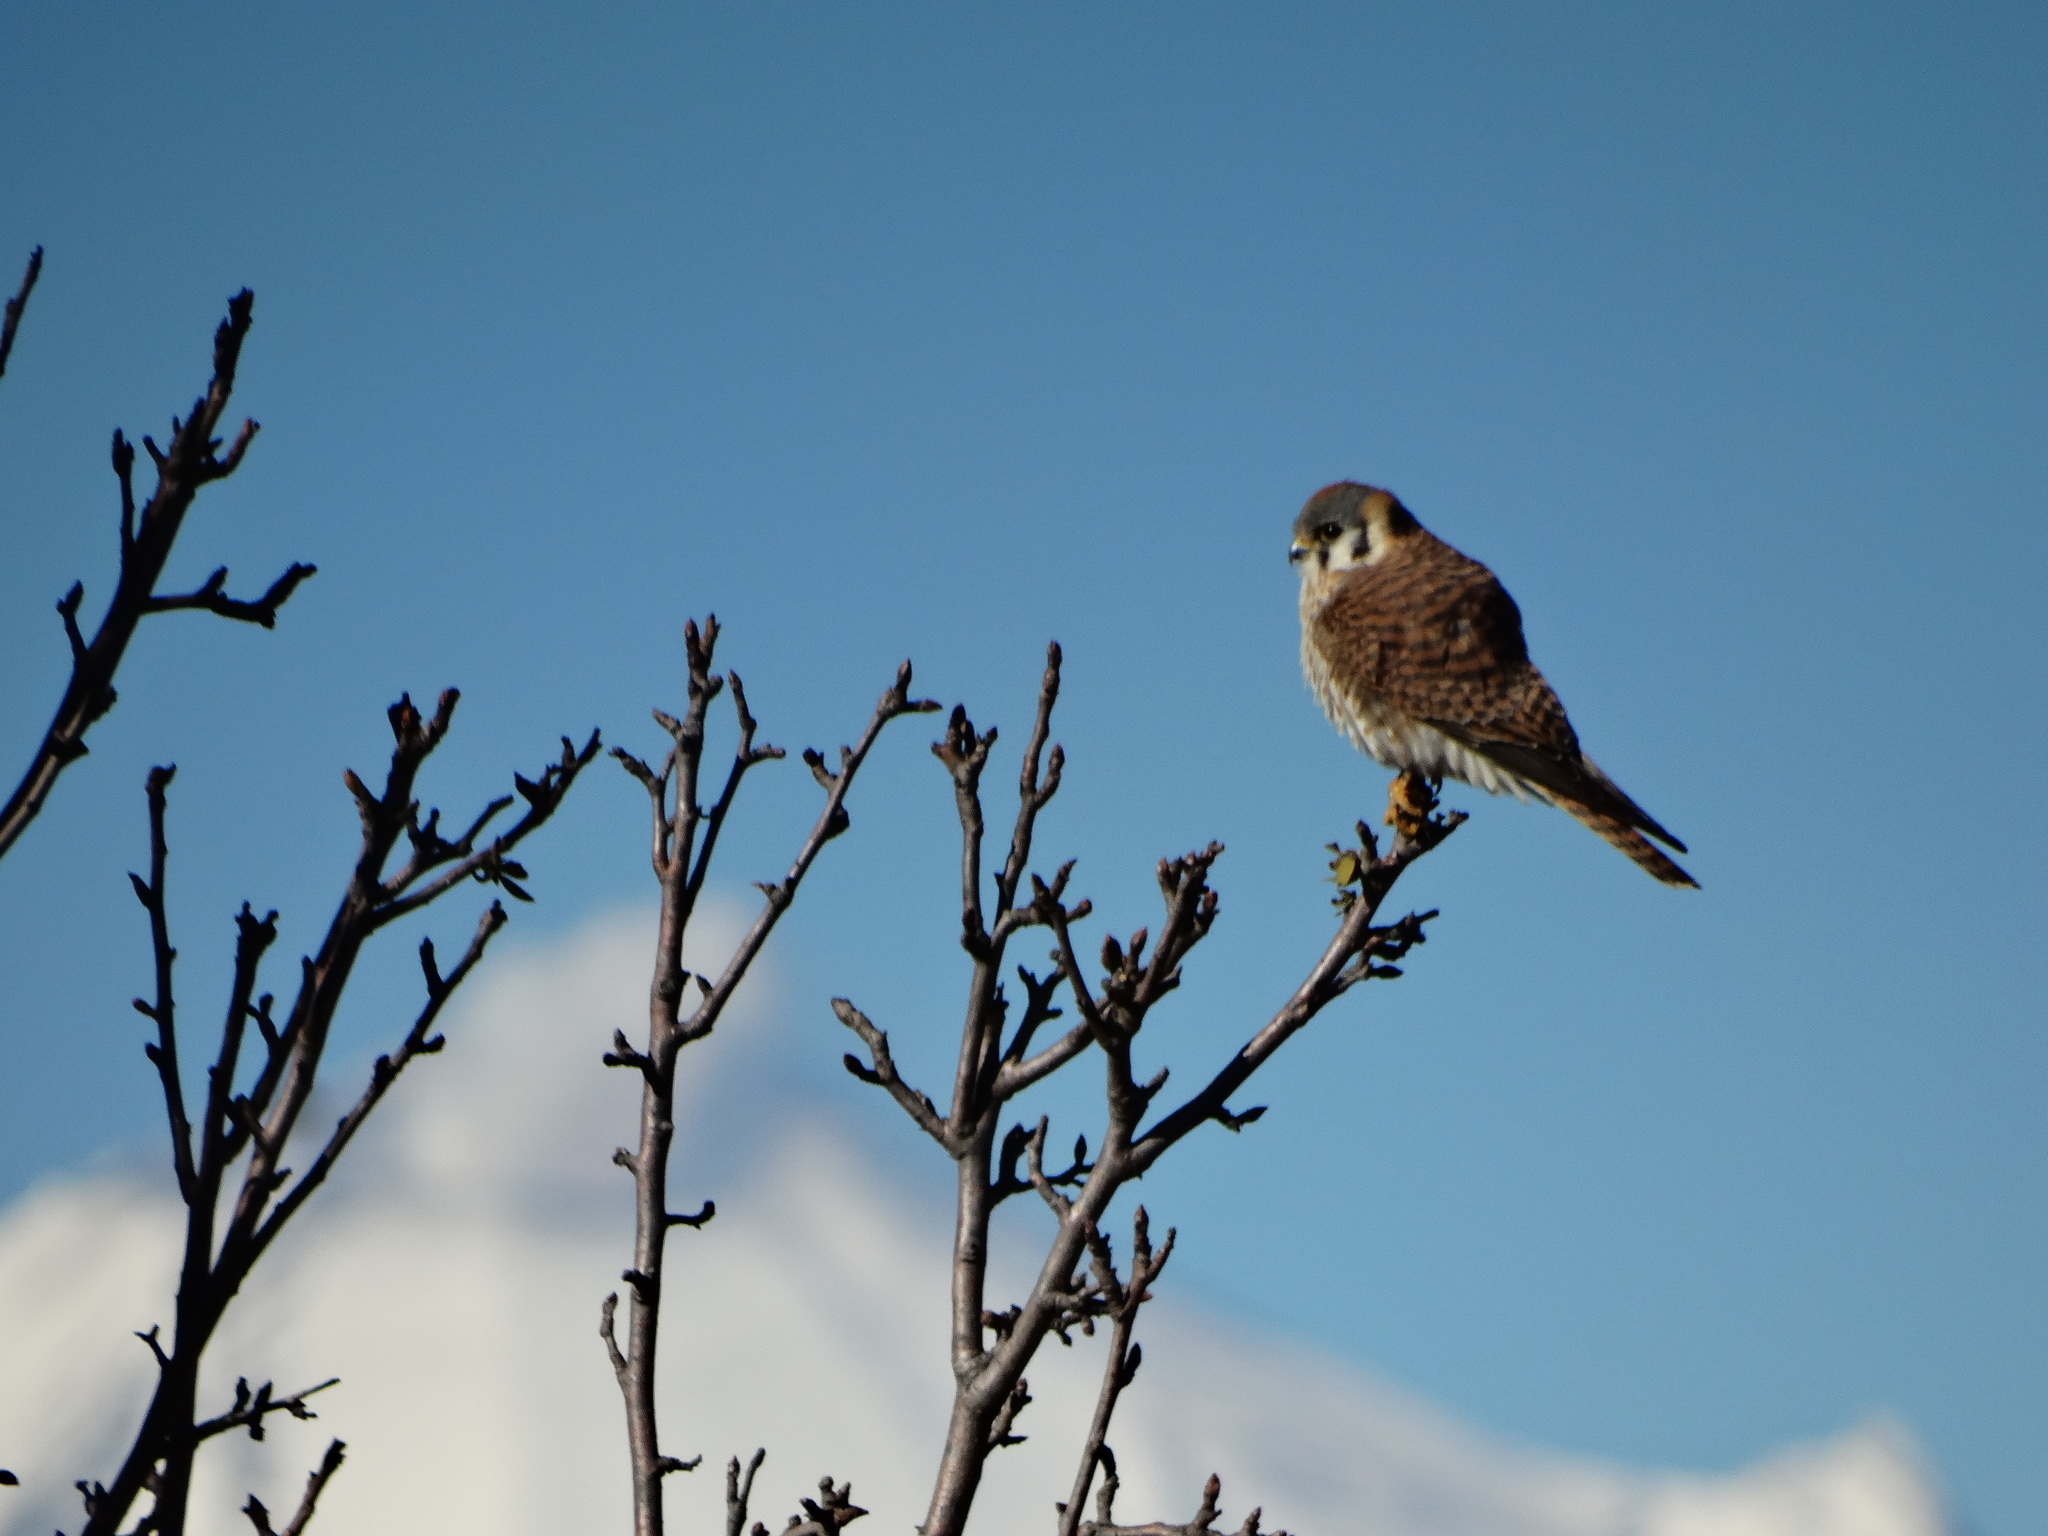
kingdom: Animalia
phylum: Chordata
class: Aves
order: Falconiformes
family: Falconidae
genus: Falco
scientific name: Falco sparverius
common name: American kestrel
